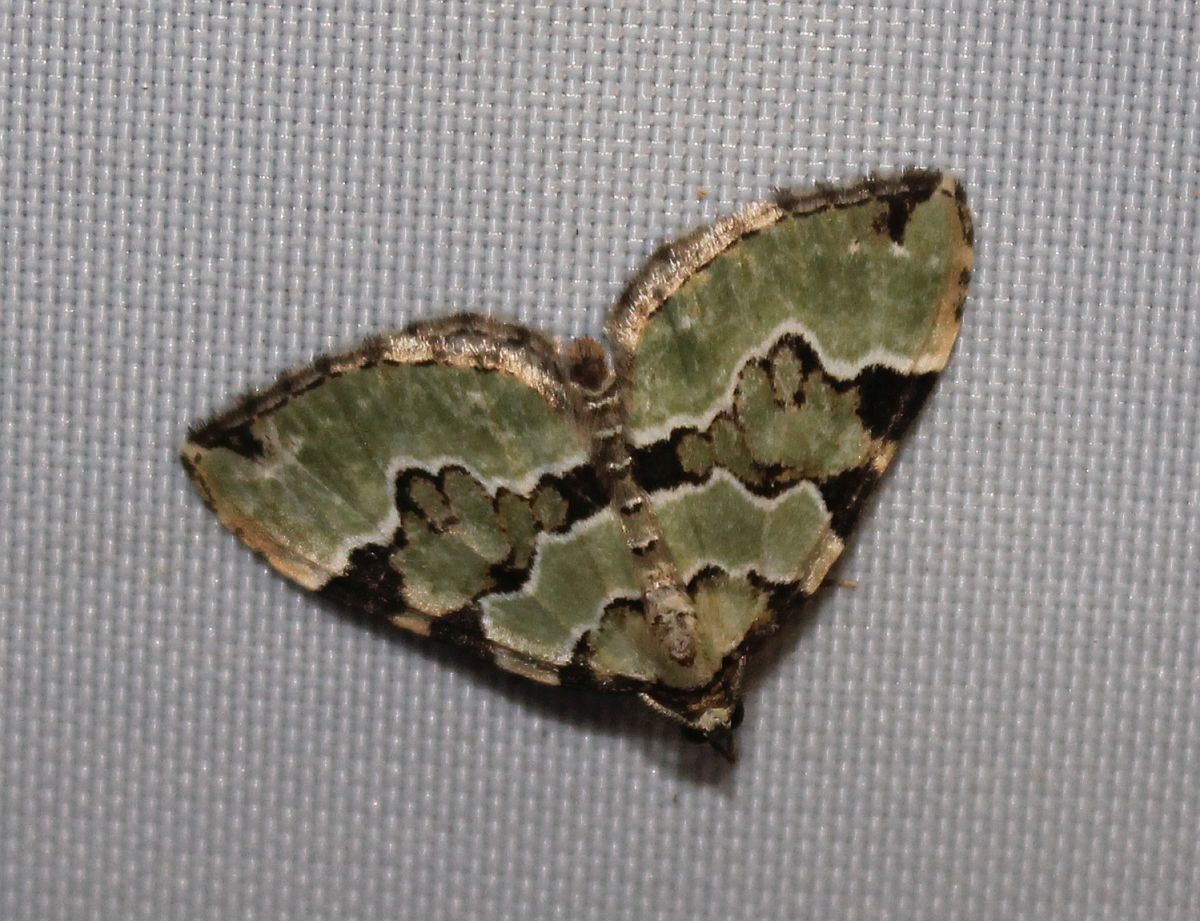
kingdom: Animalia
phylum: Arthropoda
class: Insecta
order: Lepidoptera
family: Geometridae
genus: Colostygia
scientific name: Colostygia pectinataria
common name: Green carpet
